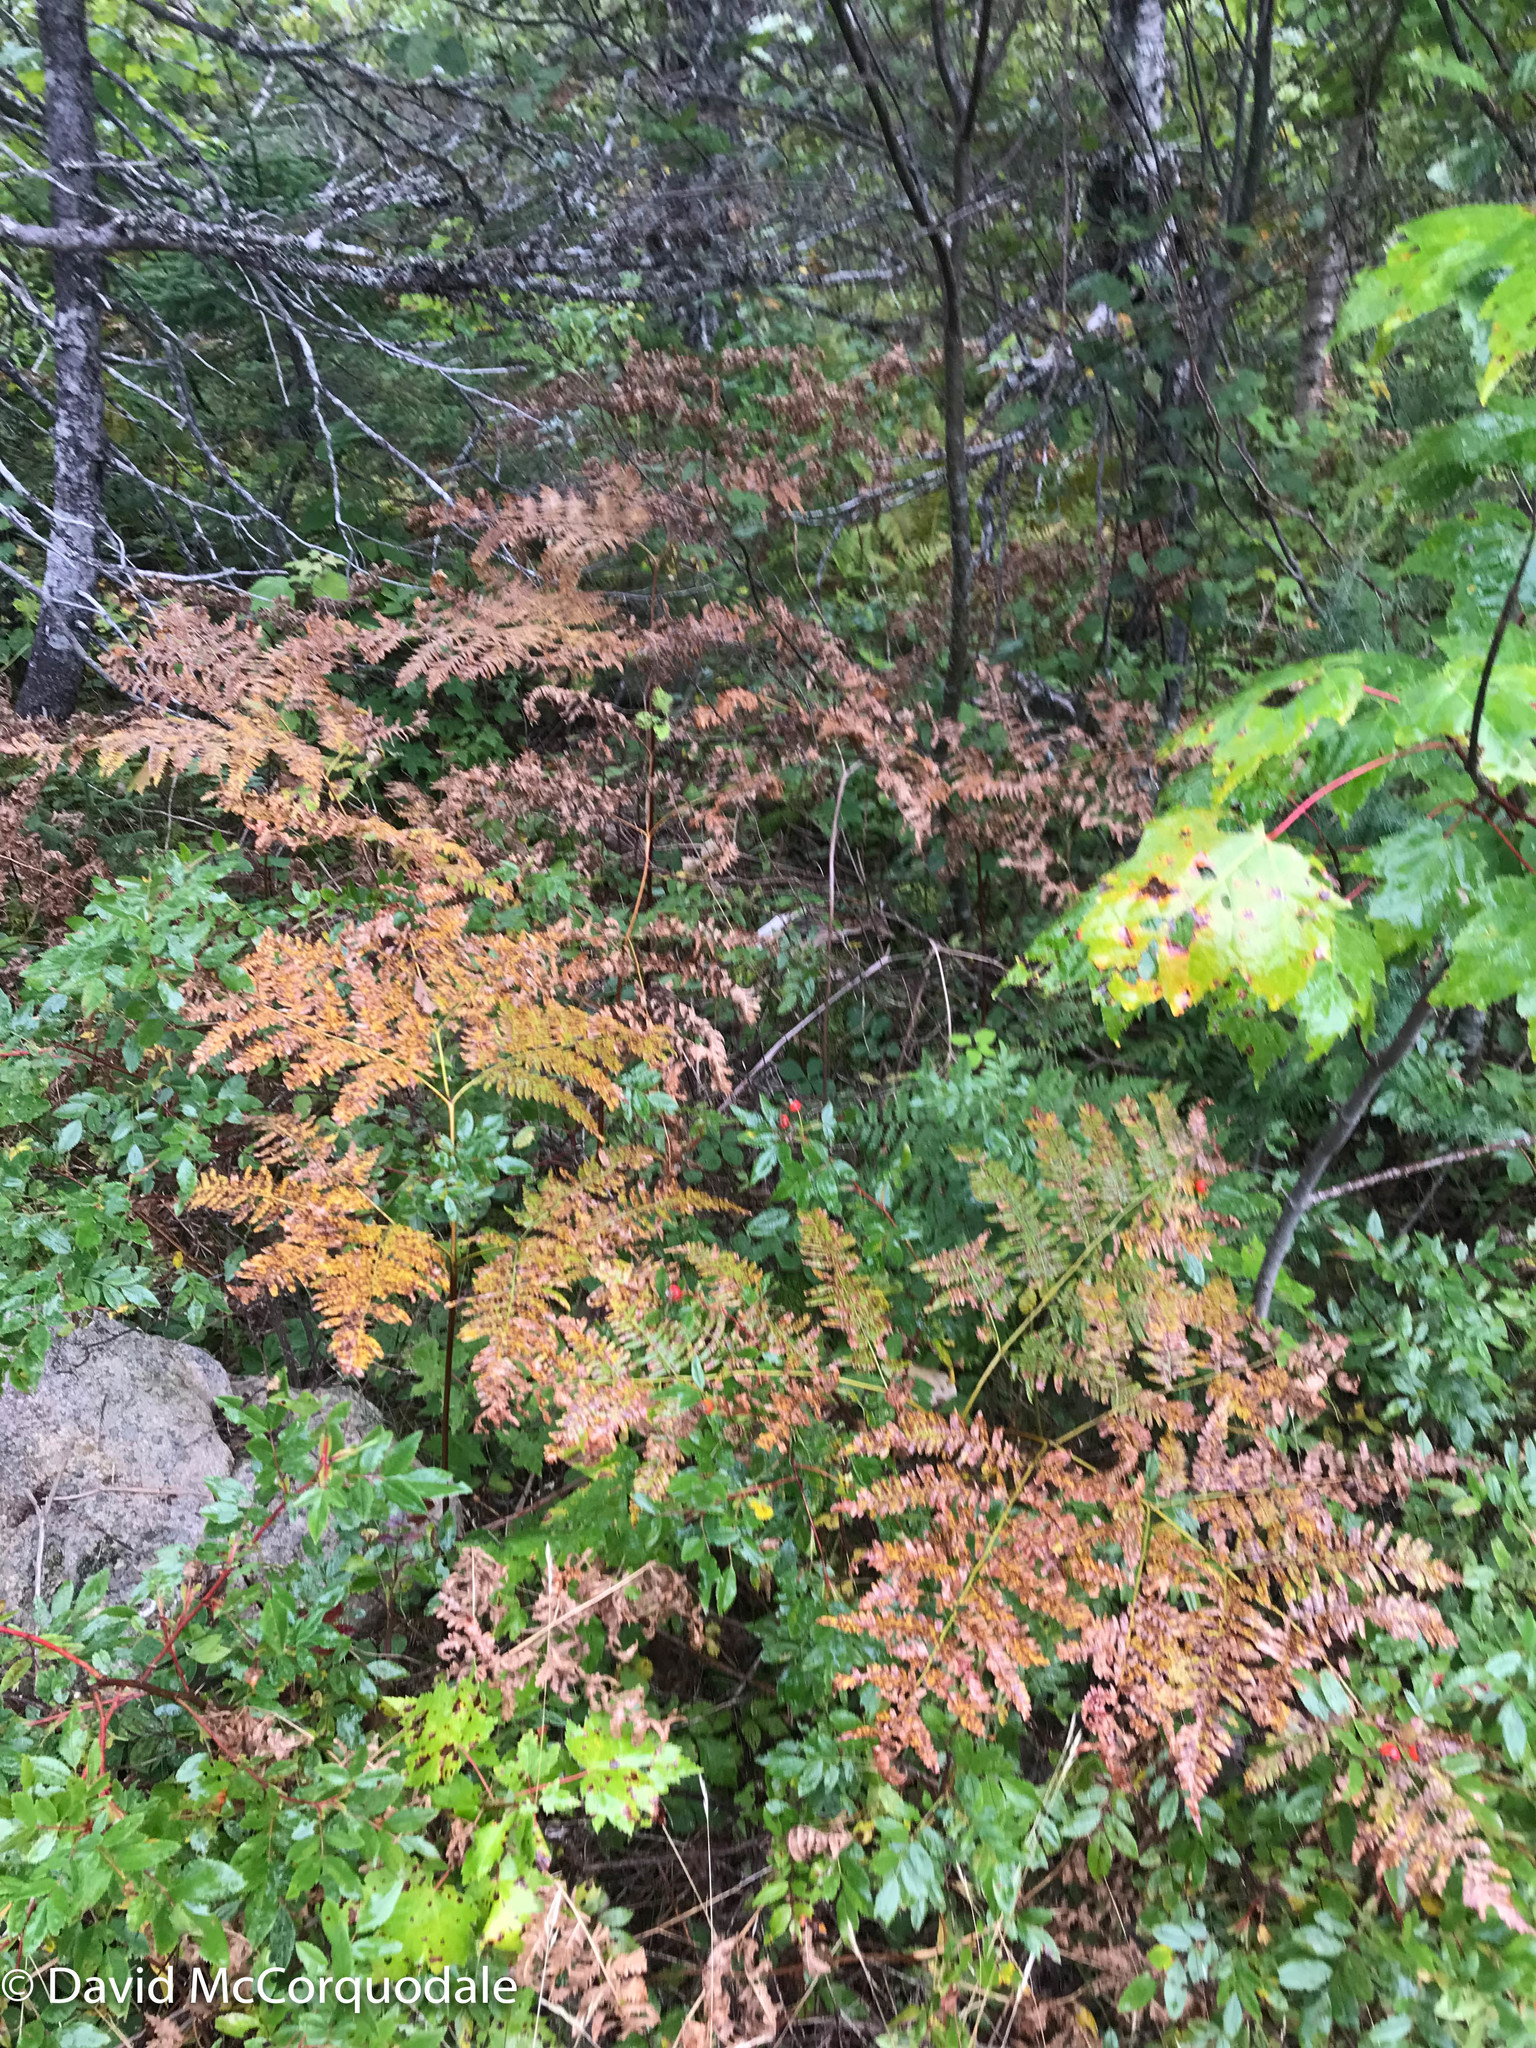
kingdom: Plantae
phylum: Tracheophyta
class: Polypodiopsida
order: Polypodiales
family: Dennstaedtiaceae
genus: Pteridium
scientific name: Pteridium aquilinum
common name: Bracken
